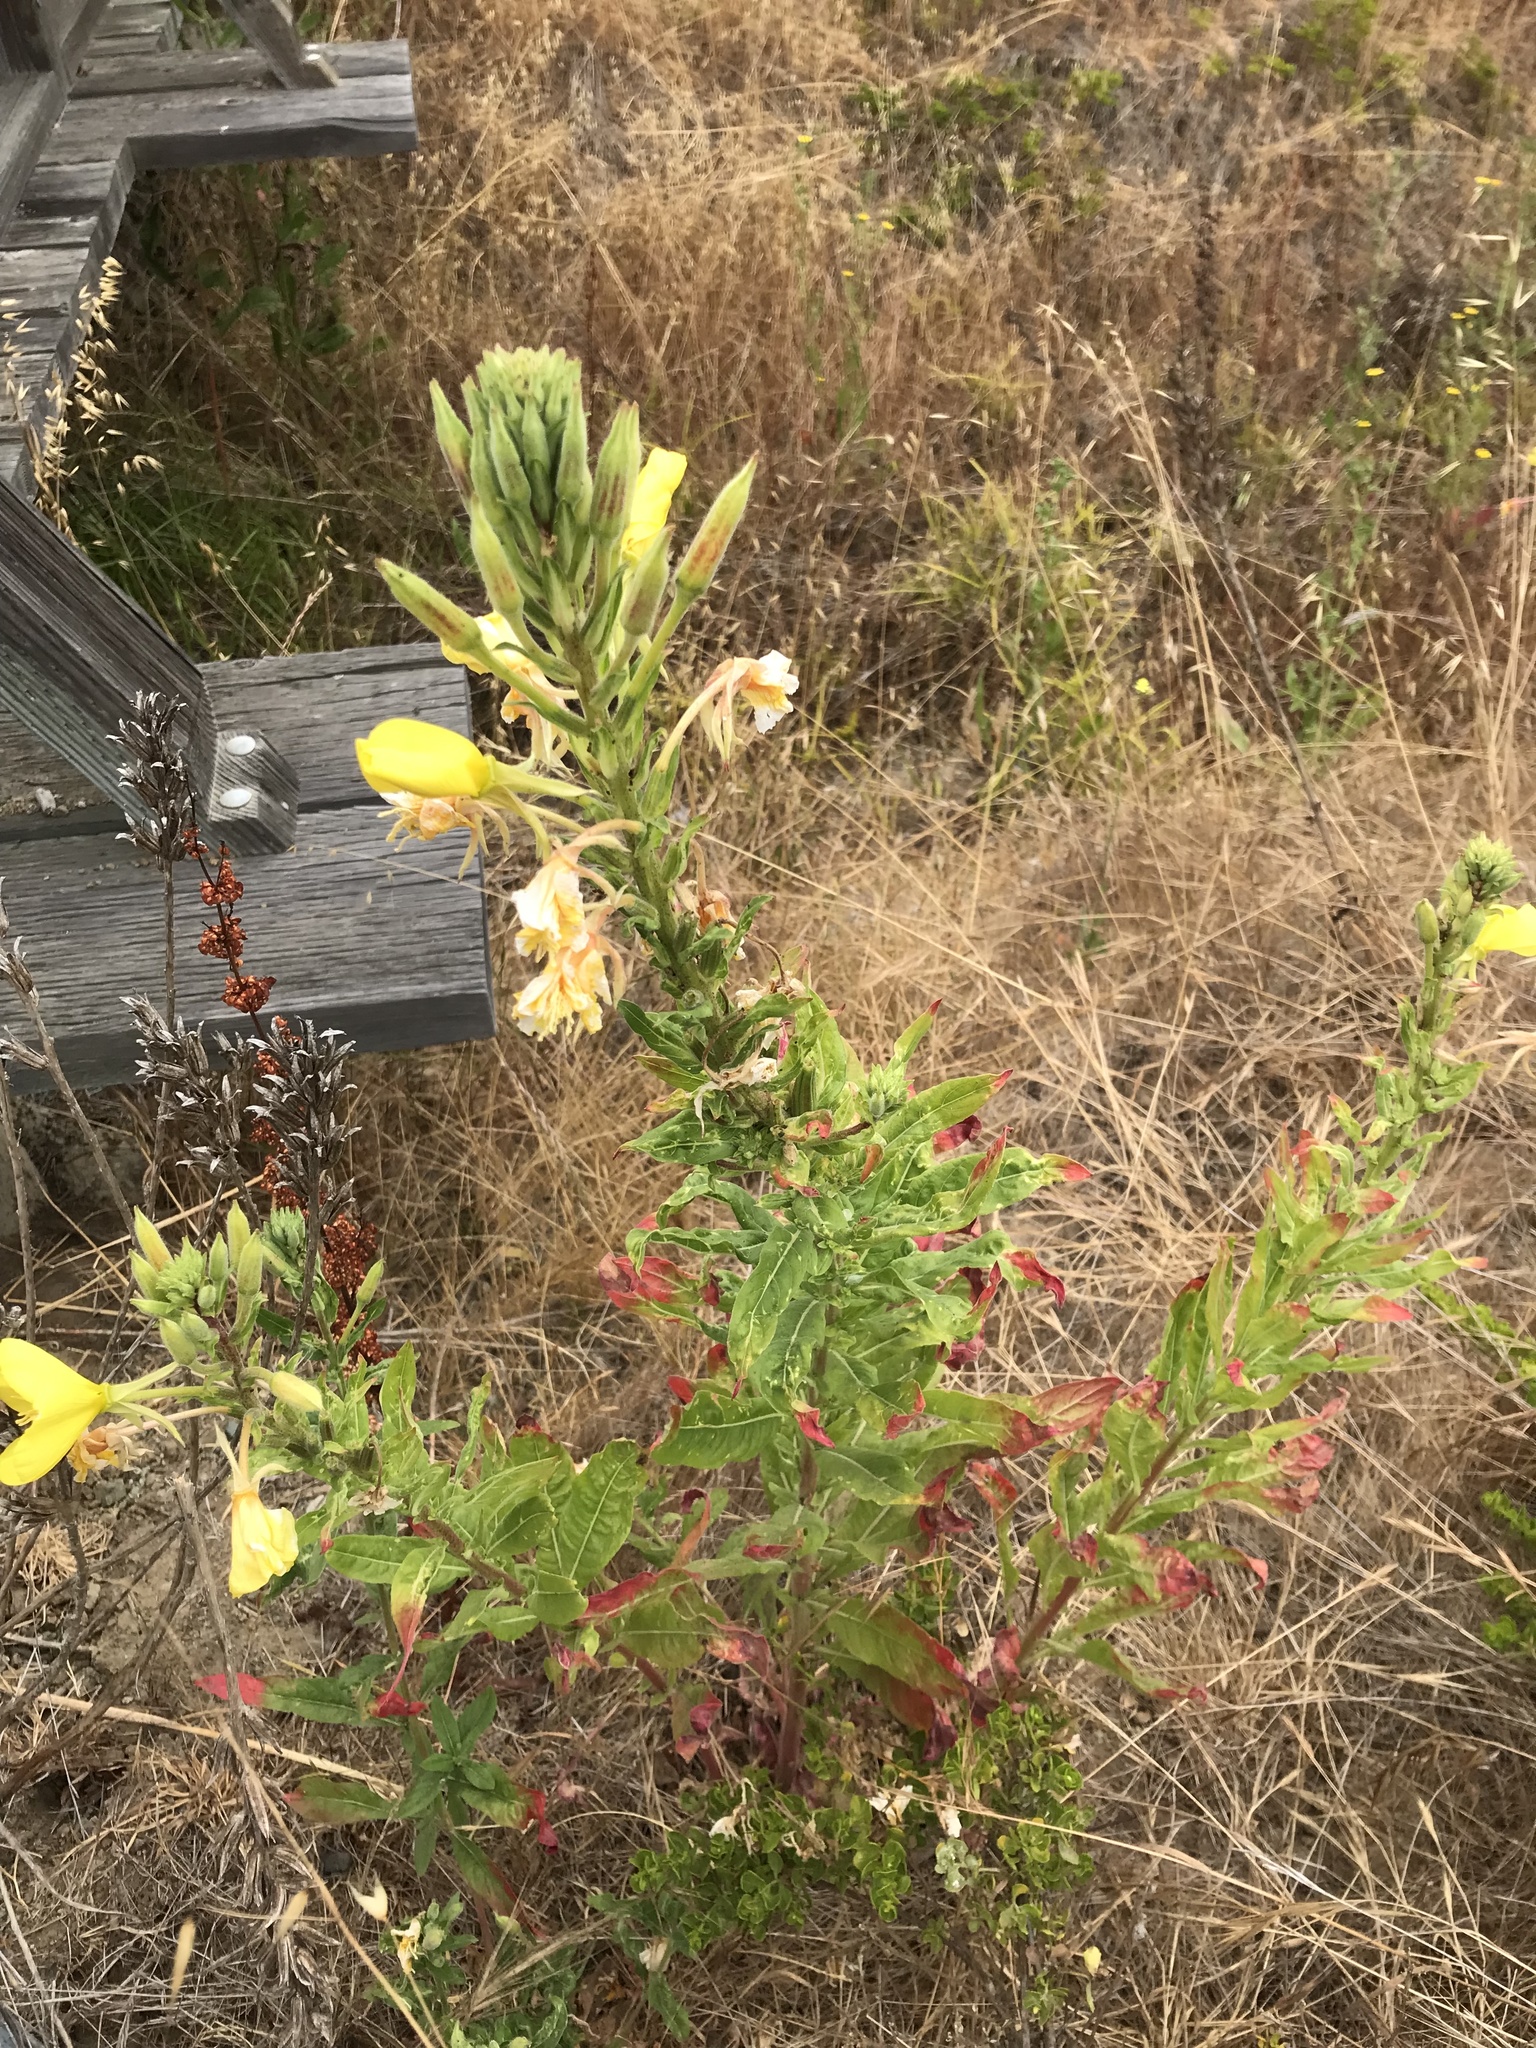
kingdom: Plantae
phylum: Tracheophyta
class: Magnoliopsida
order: Myrtales
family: Onagraceae
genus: Oenothera
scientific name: Oenothera elata
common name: Hooker's evening-primrose
